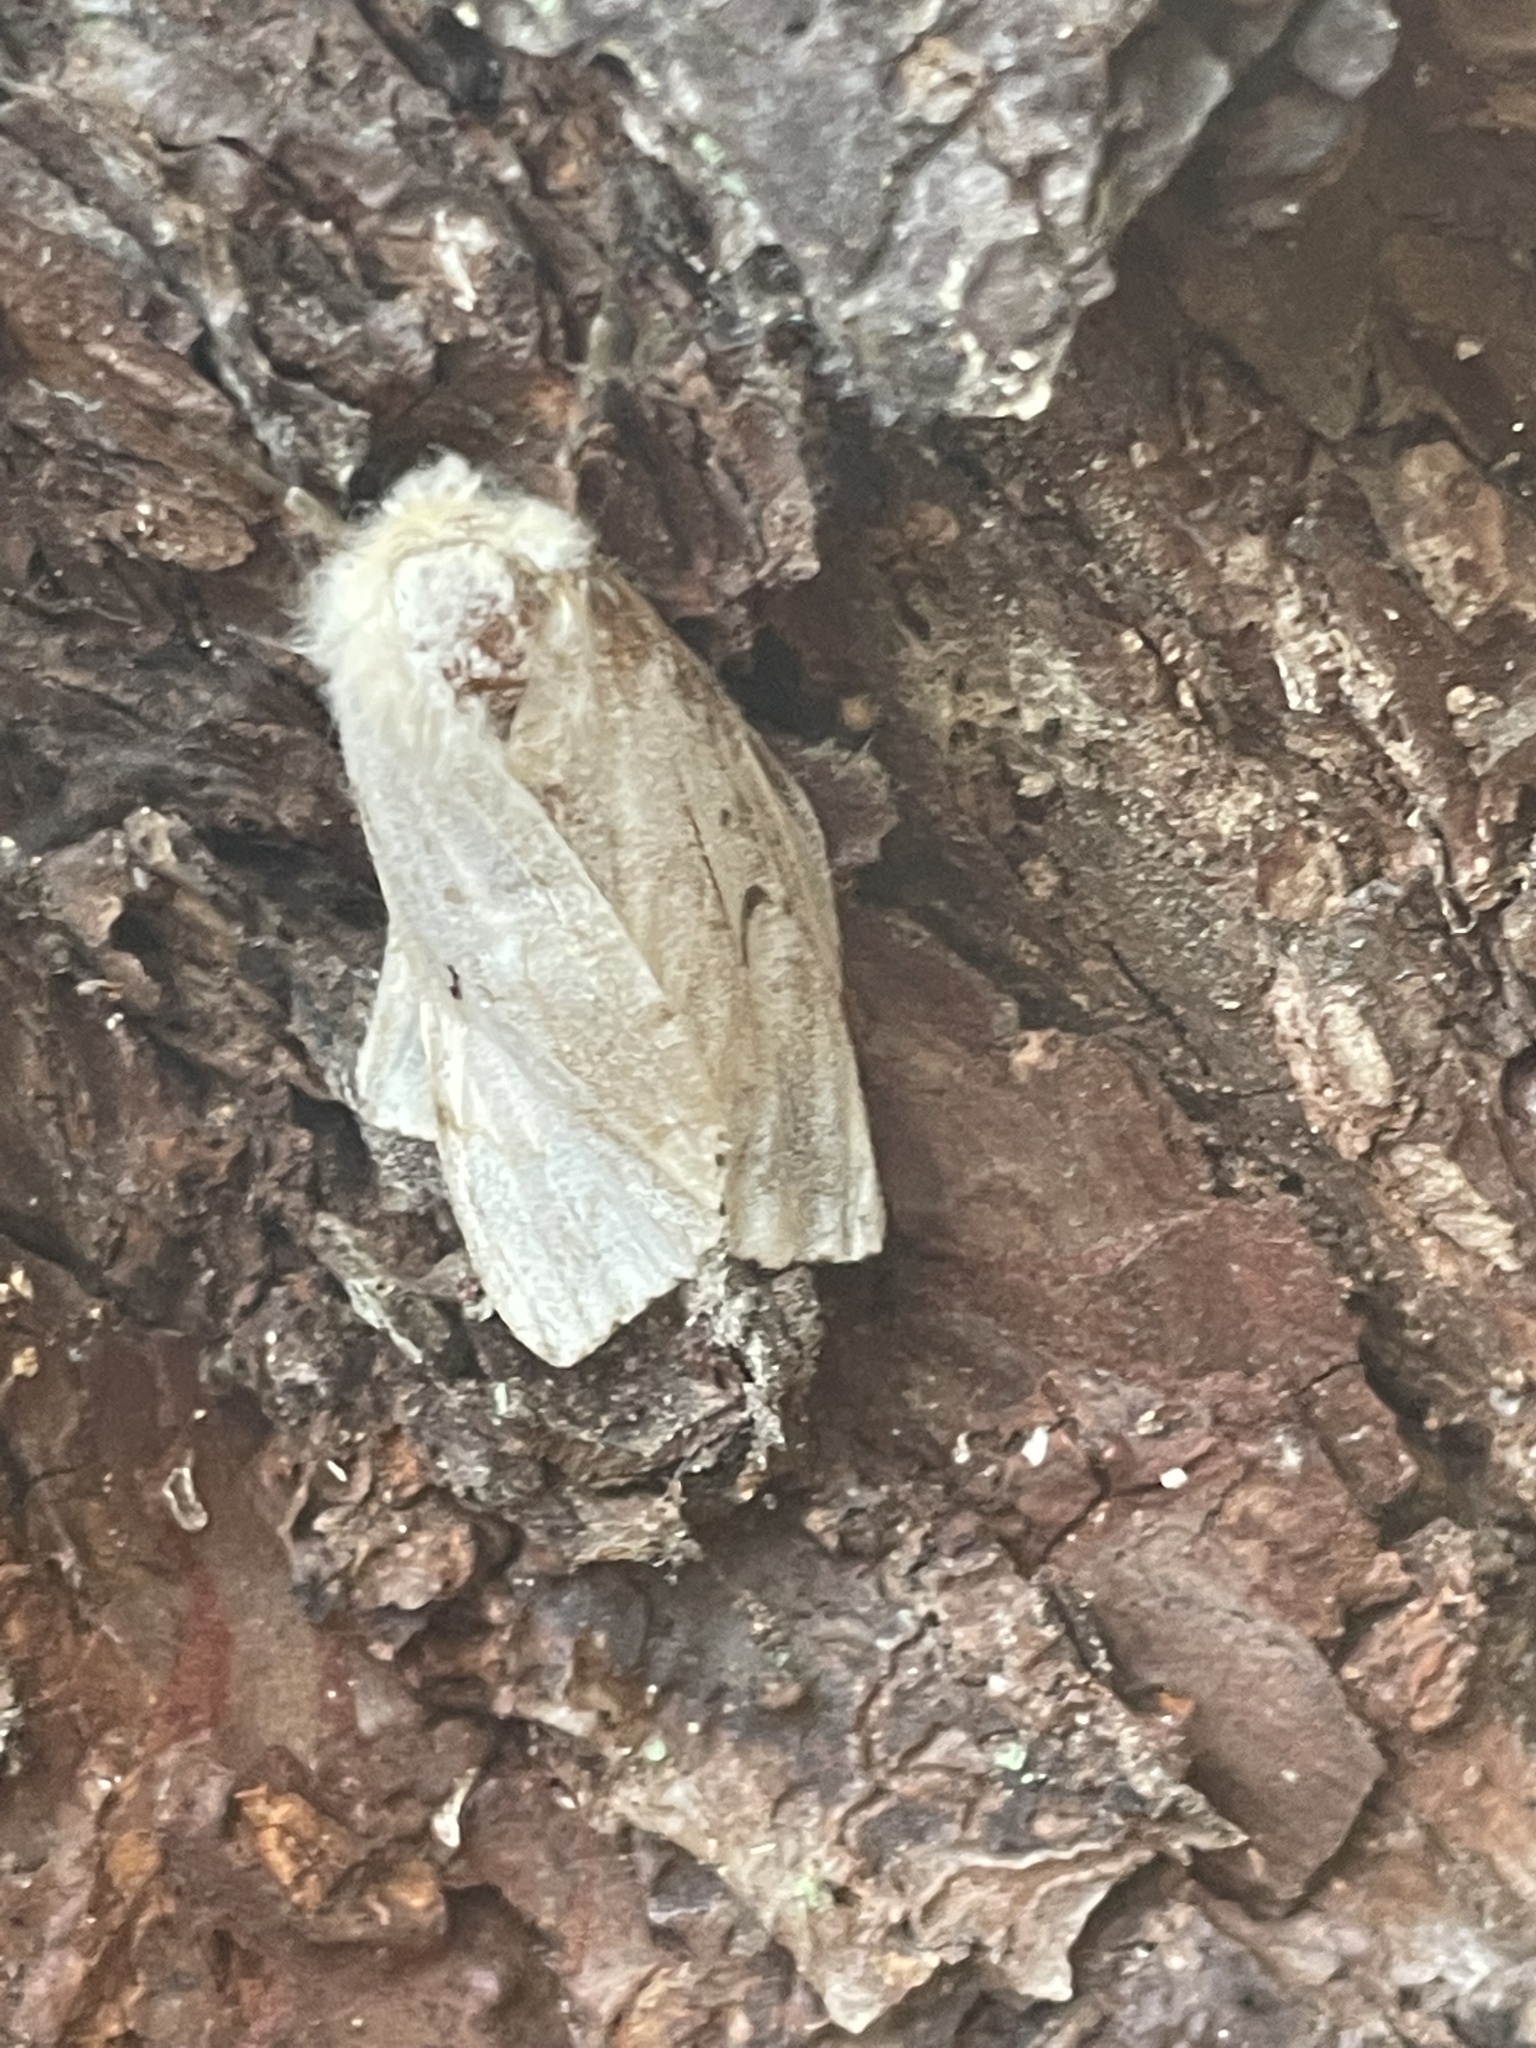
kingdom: Animalia
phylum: Arthropoda
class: Insecta
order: Lepidoptera
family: Erebidae
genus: Lymantria
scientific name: Lymantria dispar
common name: Gypsy moth
